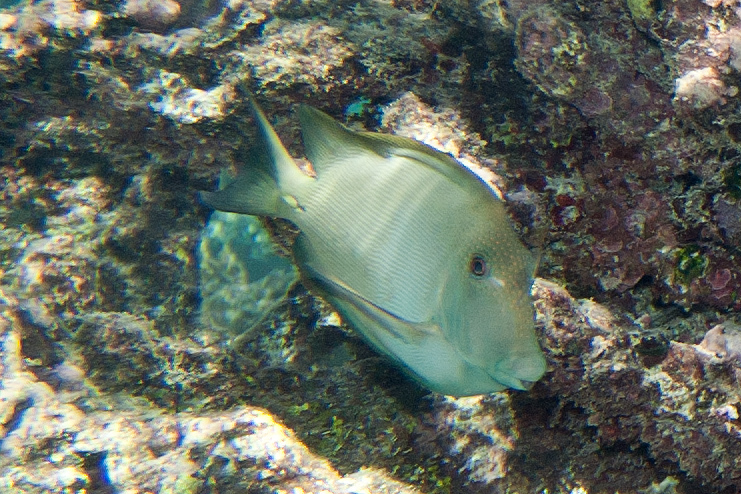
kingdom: Animalia
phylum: Chordata
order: Perciformes
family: Acanthuridae
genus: Ctenochaetus
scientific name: Ctenochaetus striatus
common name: Bristle-toothed surgeonfish
